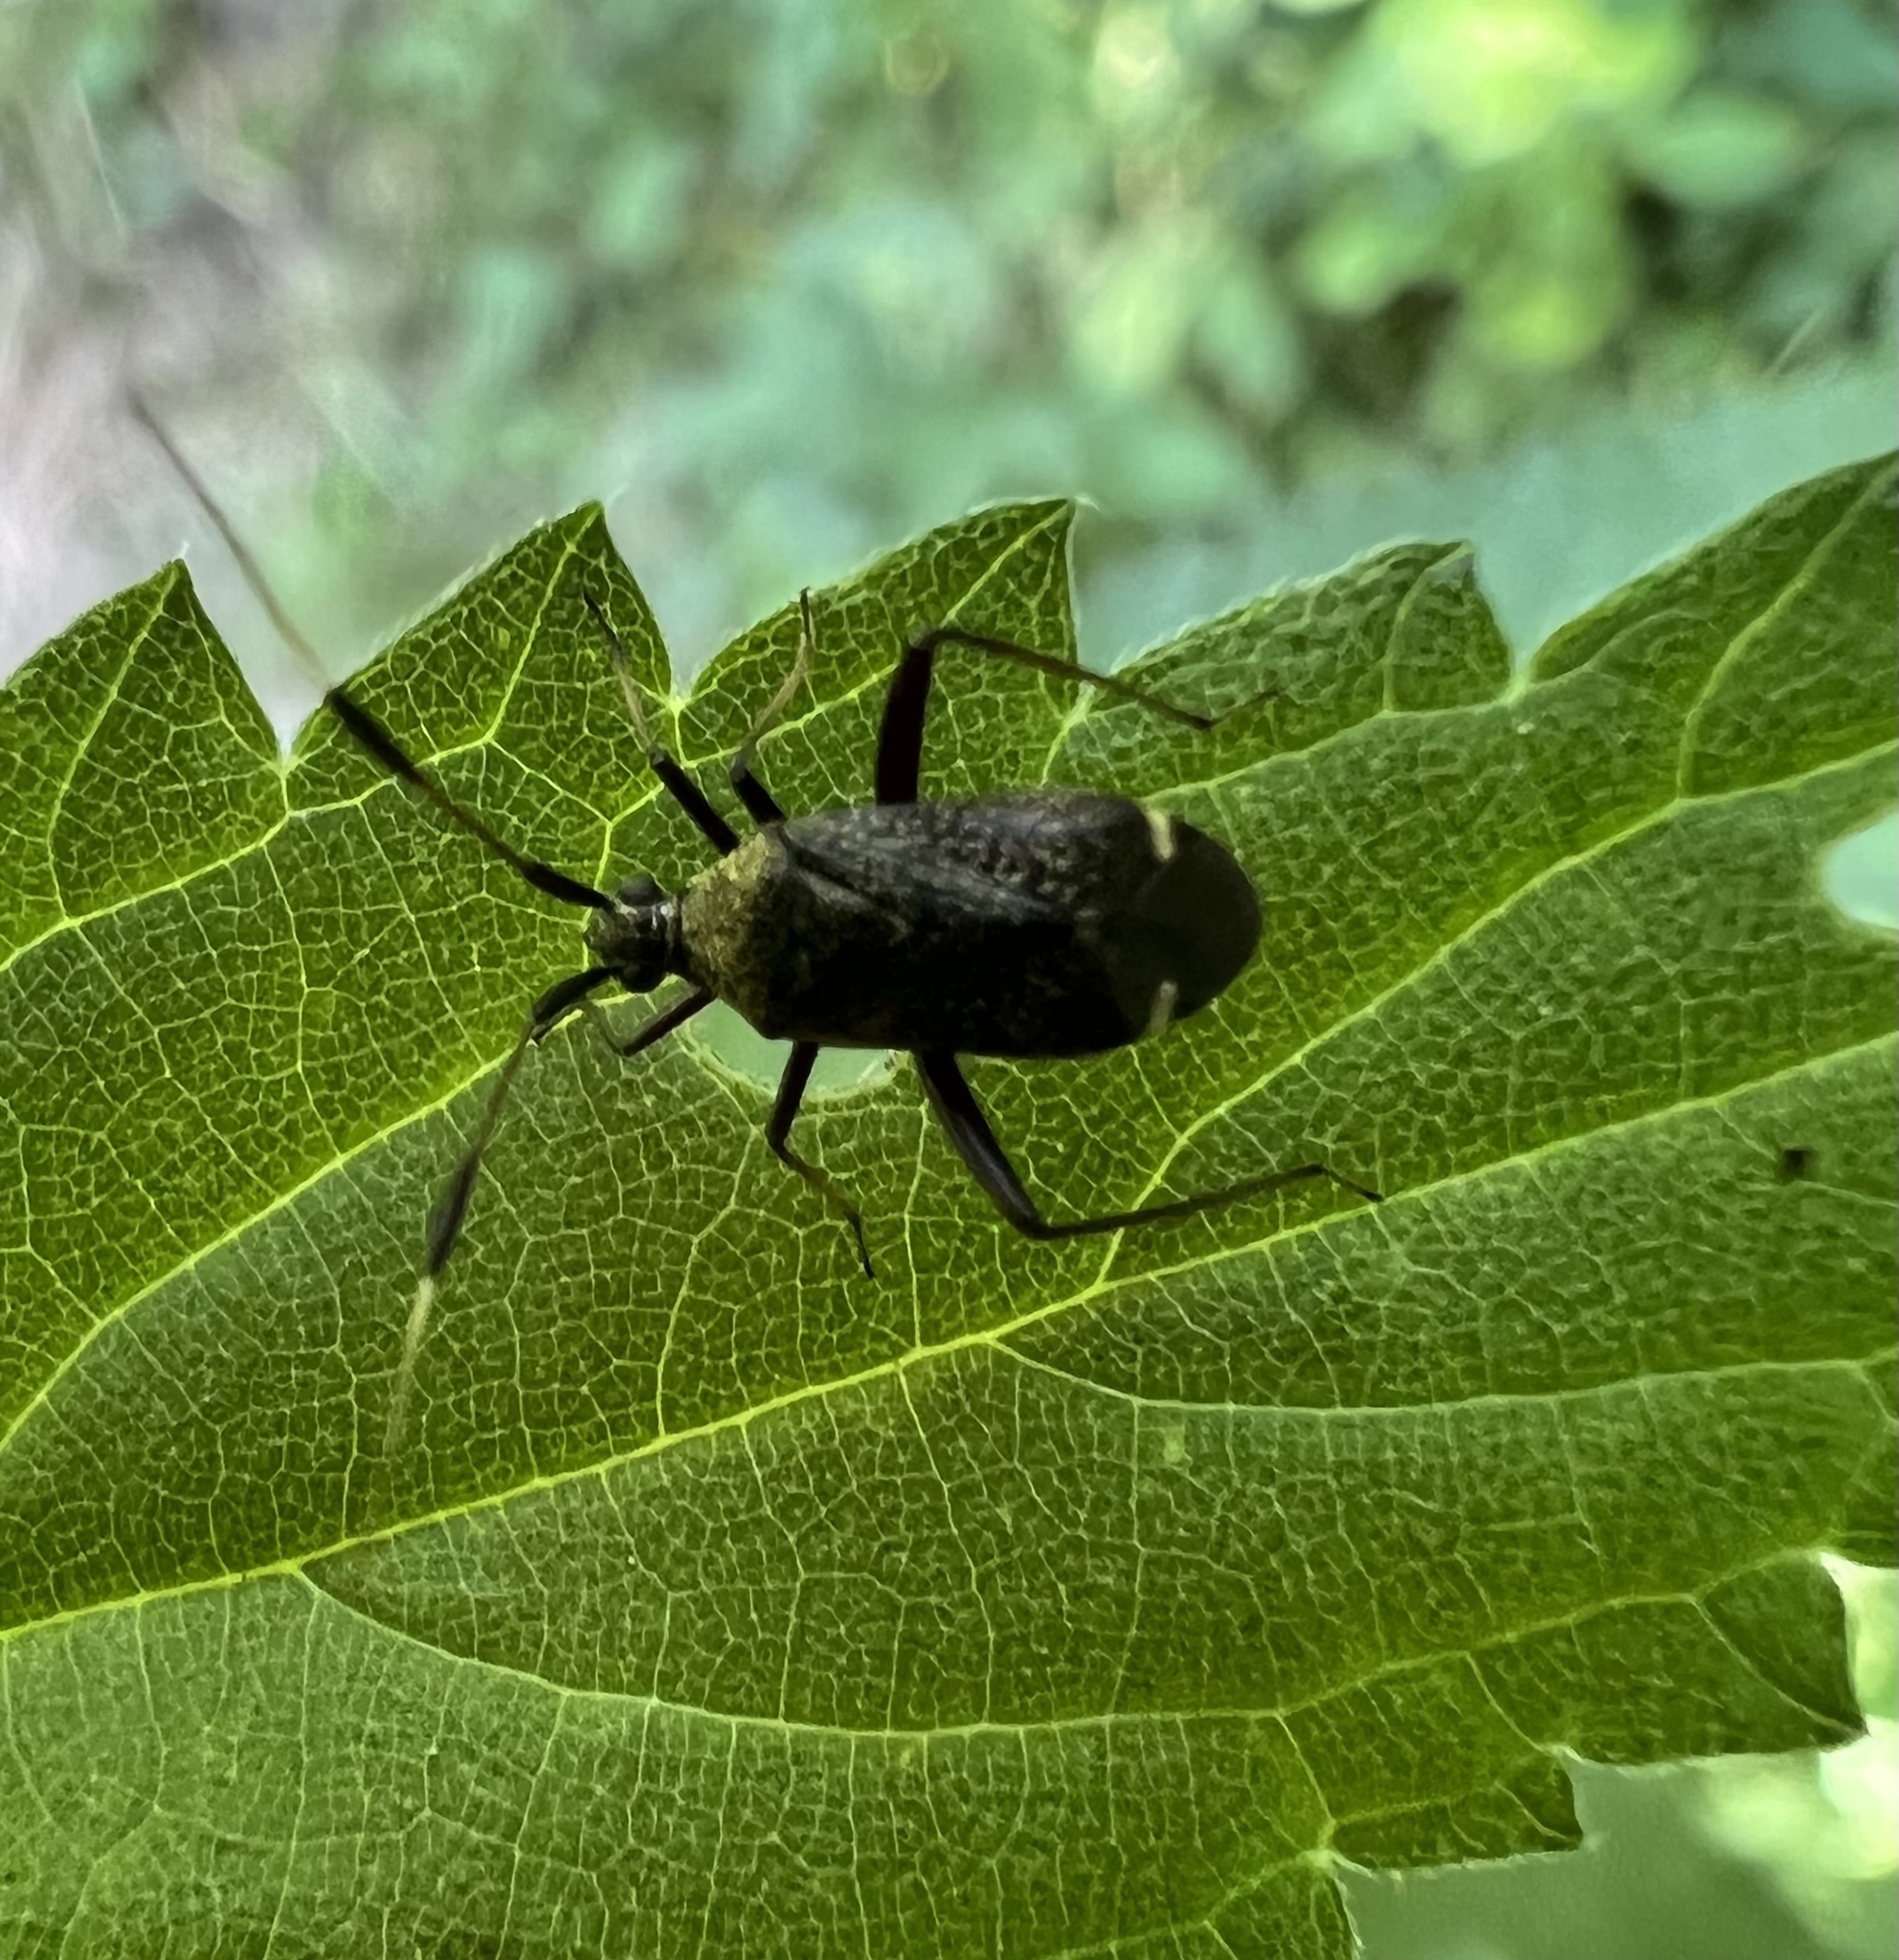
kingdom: Animalia
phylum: Arthropoda
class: Insecta
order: Hemiptera
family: Miridae
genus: Closterotomus
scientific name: Closterotomus biclavatus
